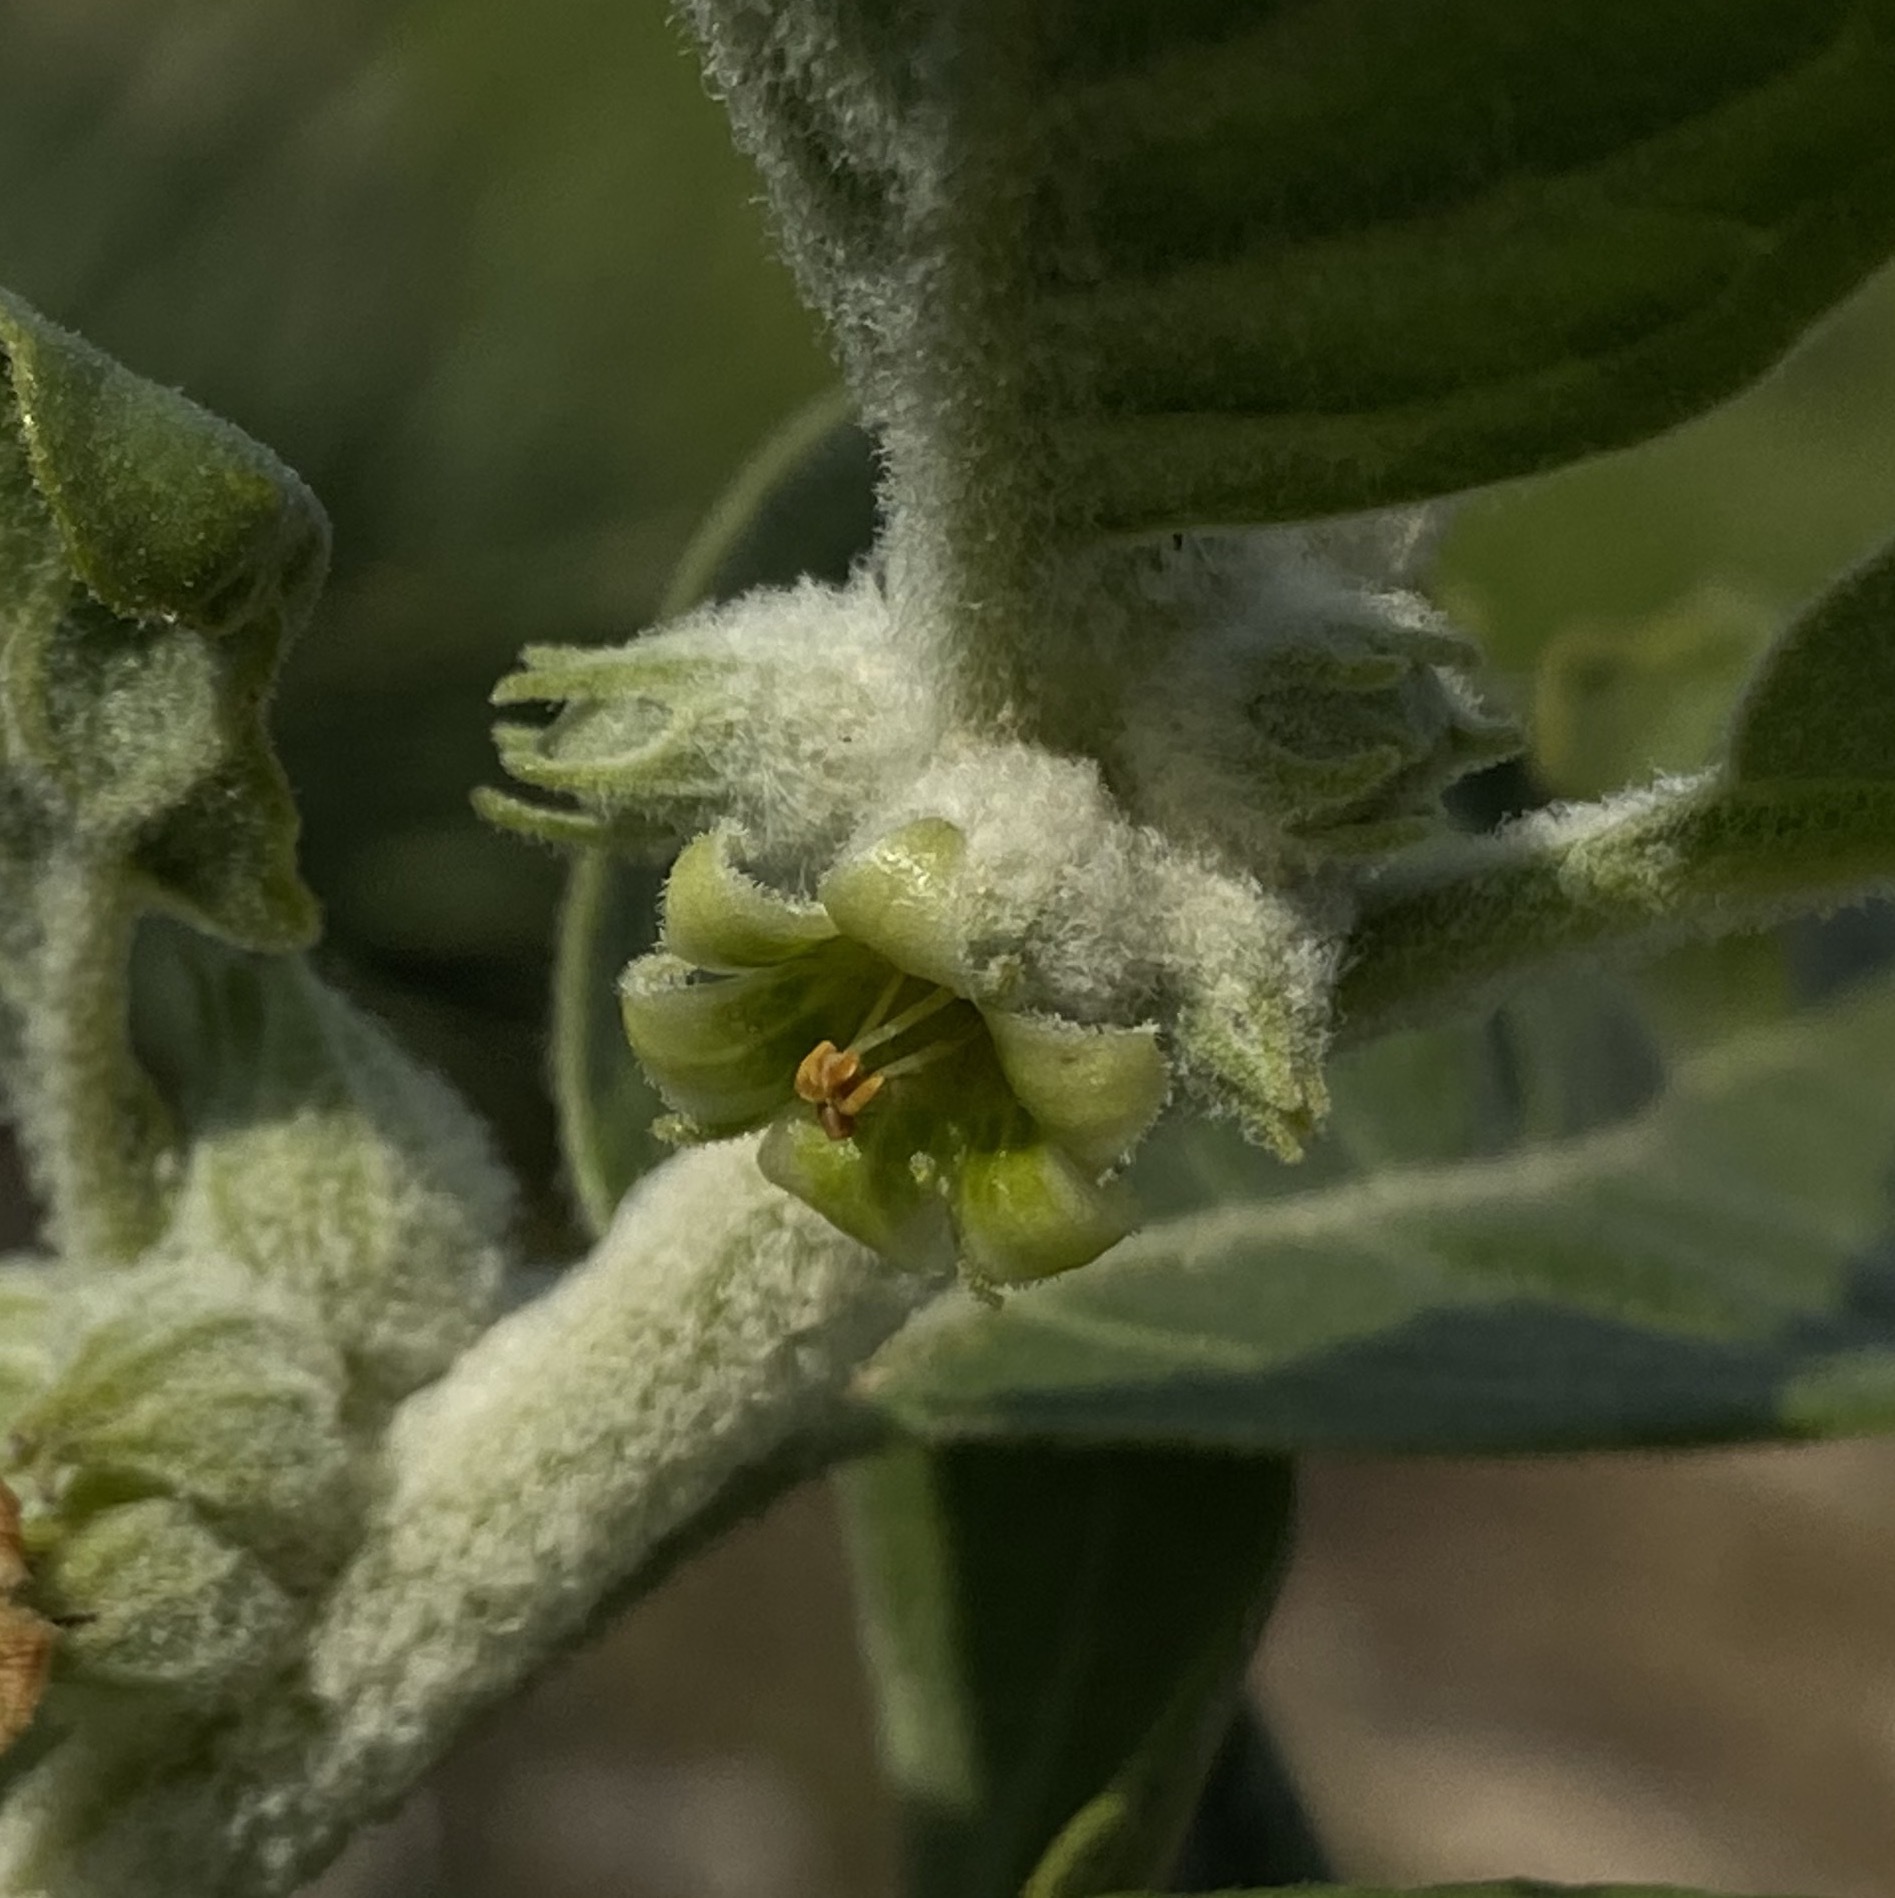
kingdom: Plantae
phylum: Tracheophyta
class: Magnoliopsida
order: Solanales
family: Solanaceae
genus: Withania
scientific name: Withania somnifera
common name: Winter-cherry
